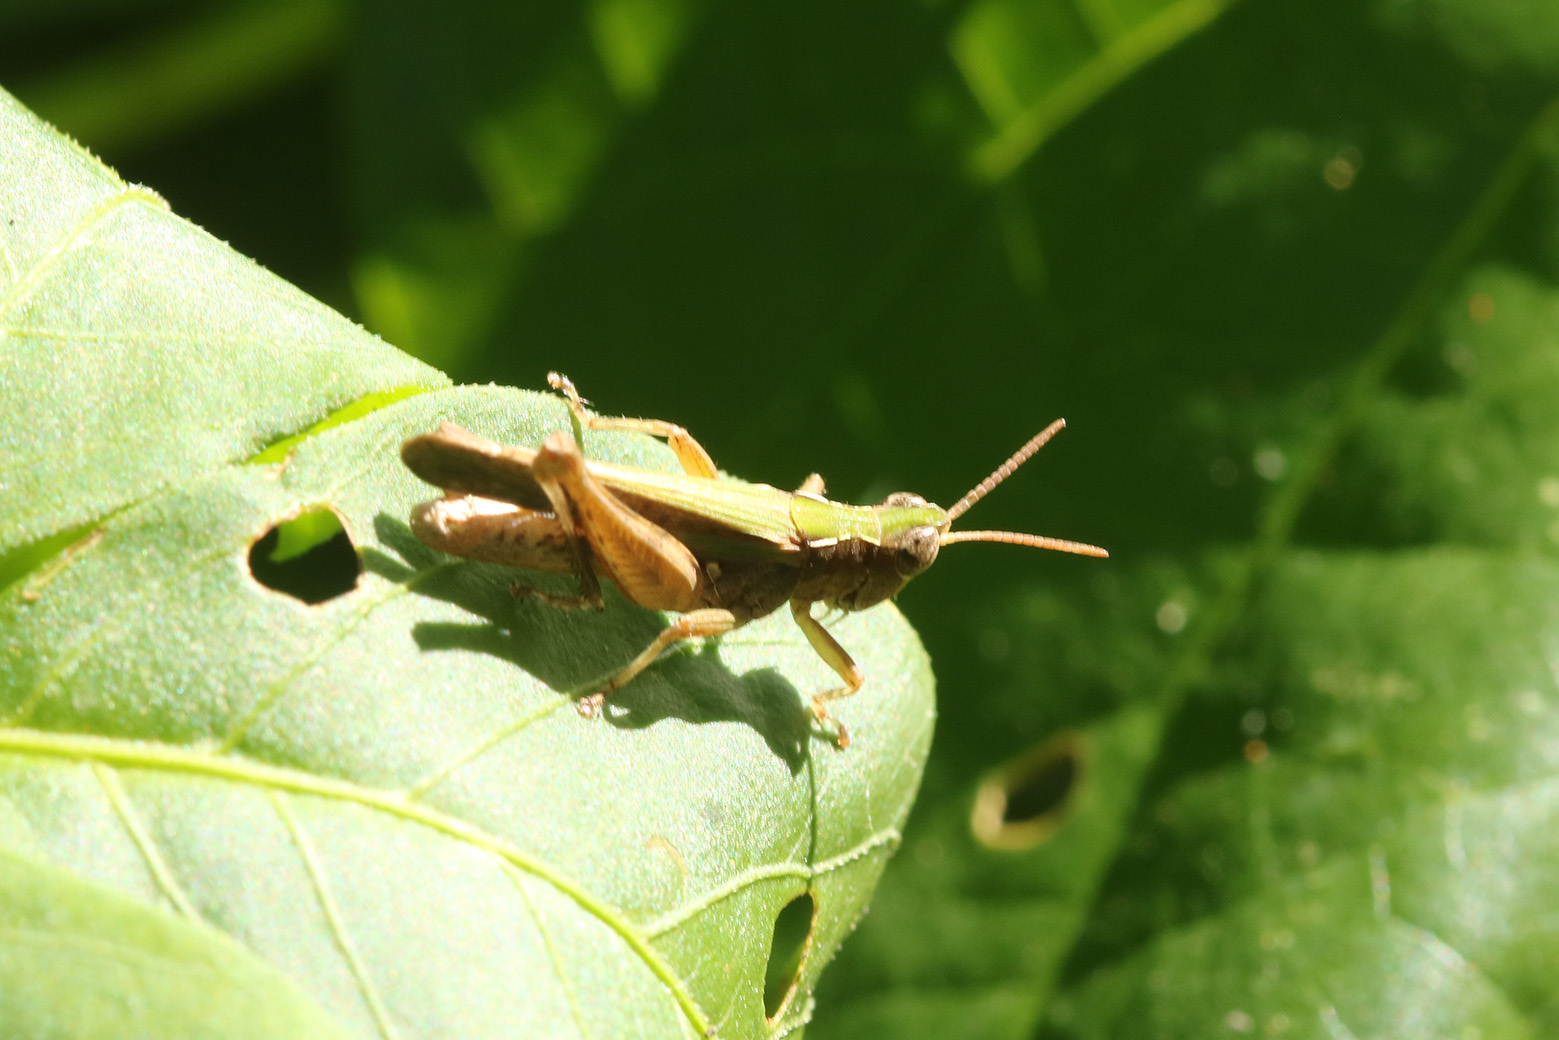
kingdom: Animalia
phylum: Arthropoda
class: Insecta
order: Orthoptera
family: Acrididae
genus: Orphulella
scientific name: Orphulella punctata
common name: Slant-faced grasshopper
